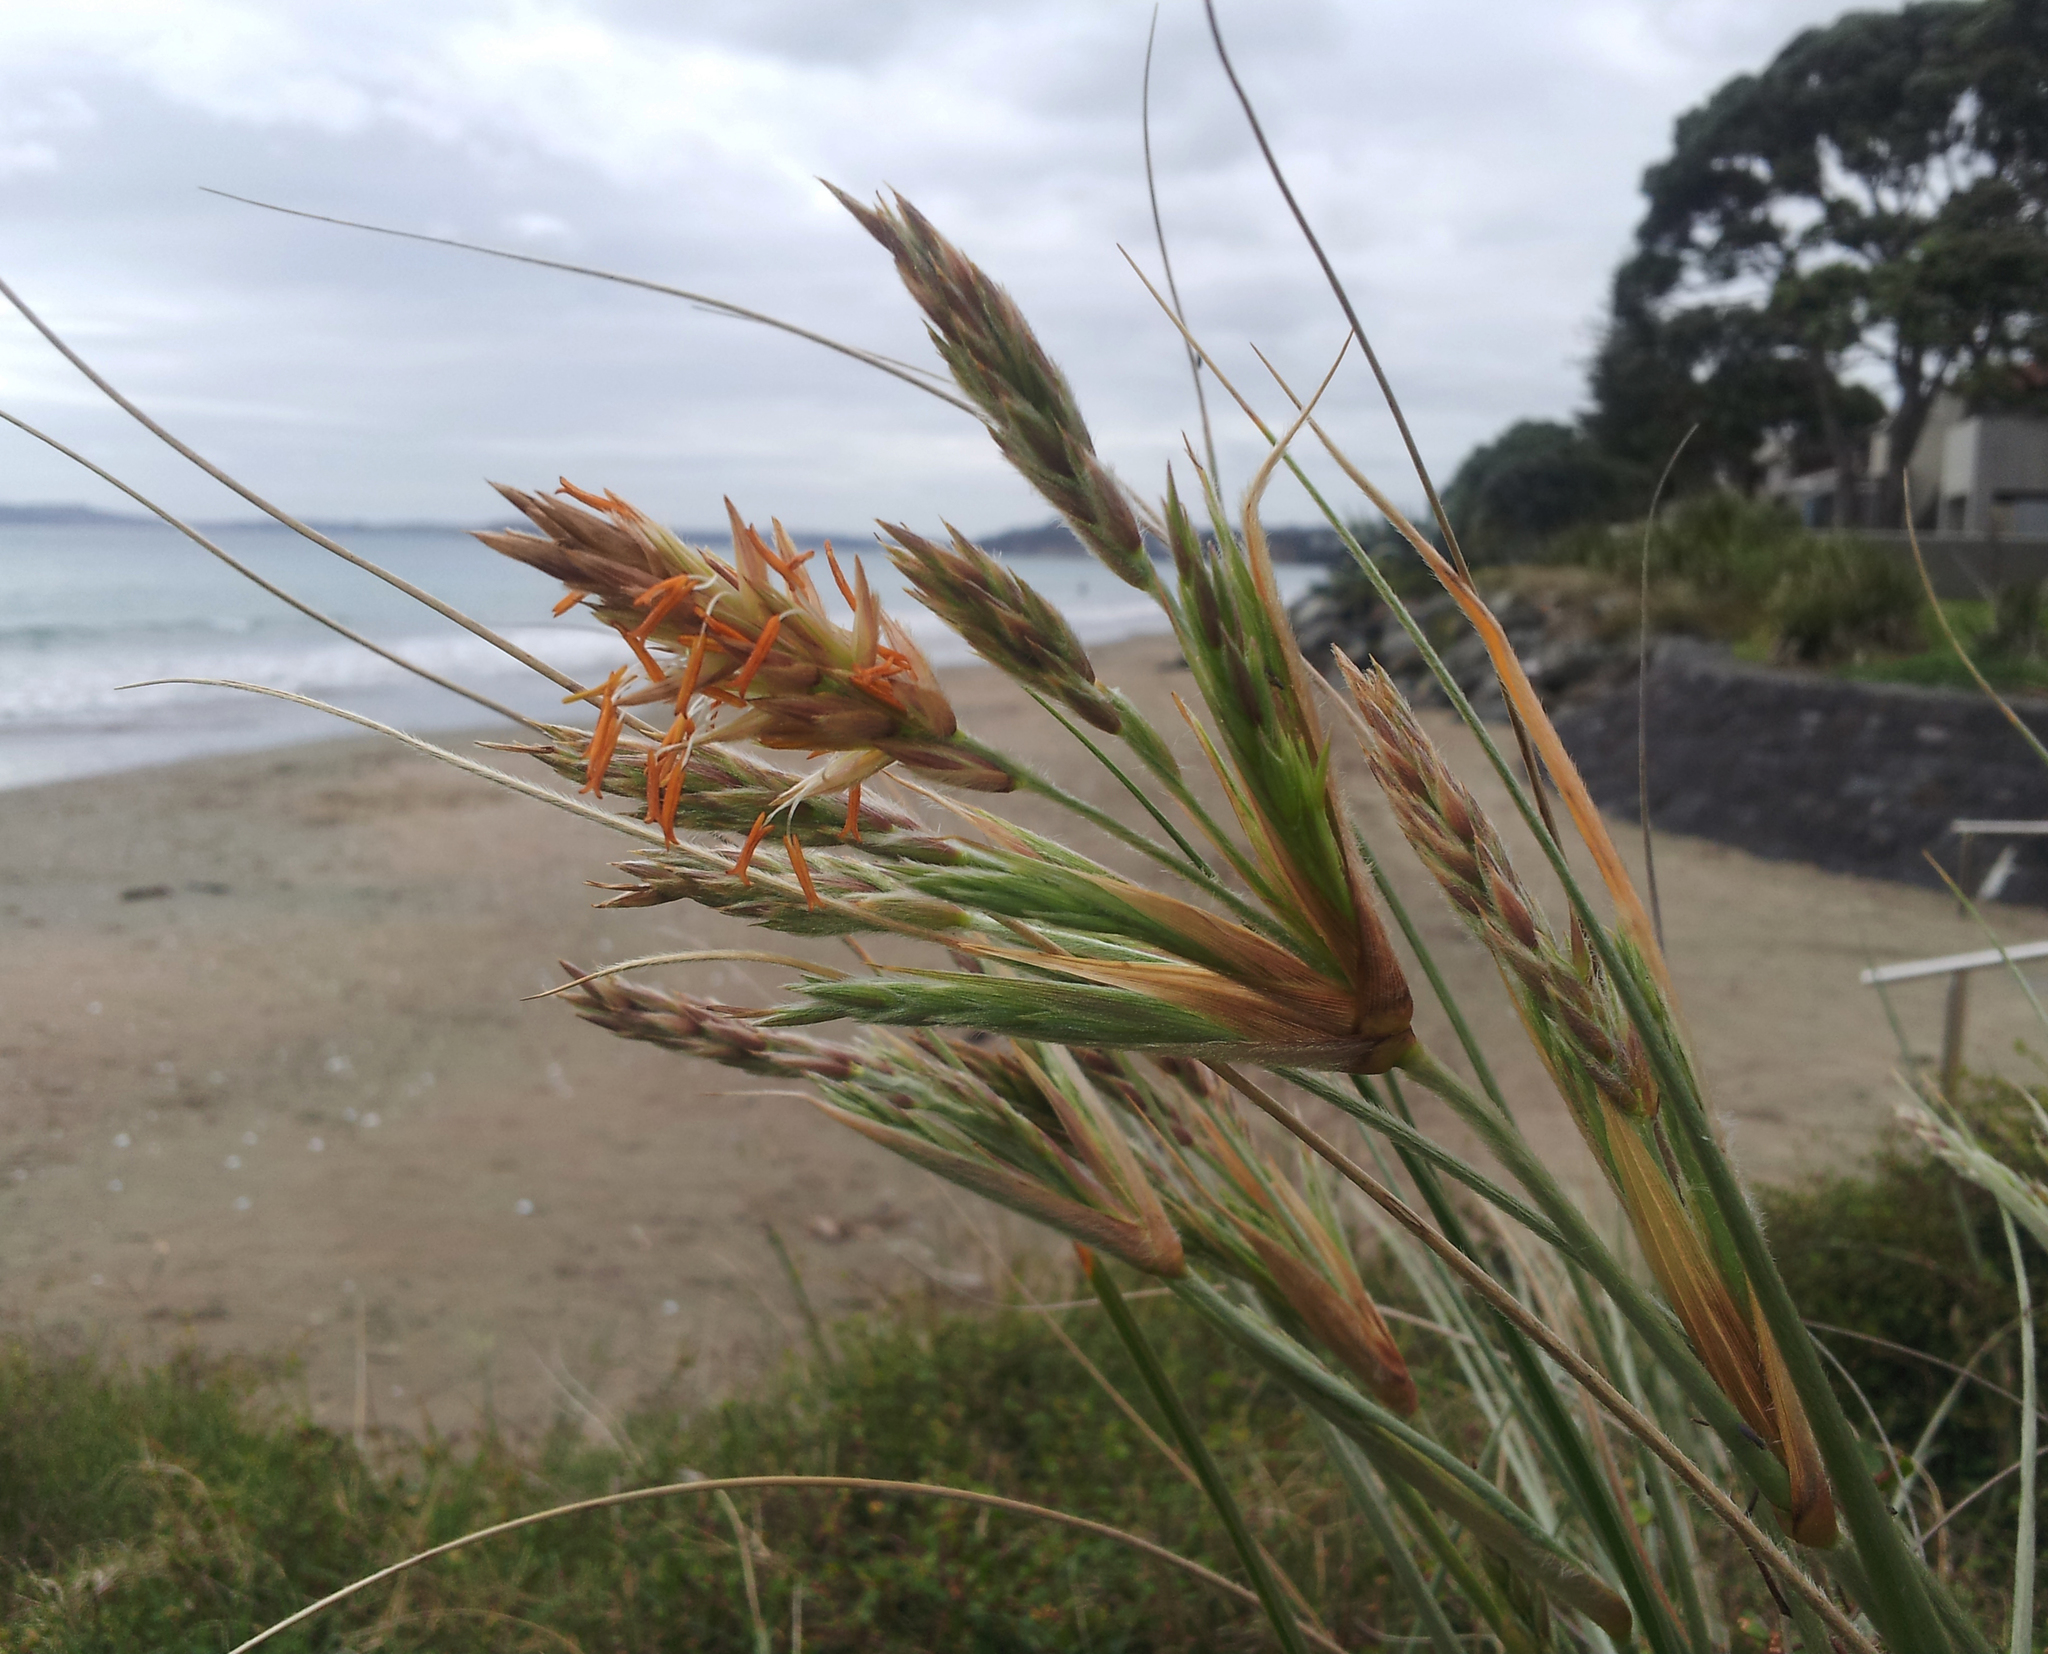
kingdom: Plantae
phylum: Tracheophyta
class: Liliopsida
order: Poales
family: Poaceae
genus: Spinifex
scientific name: Spinifex sericeus
